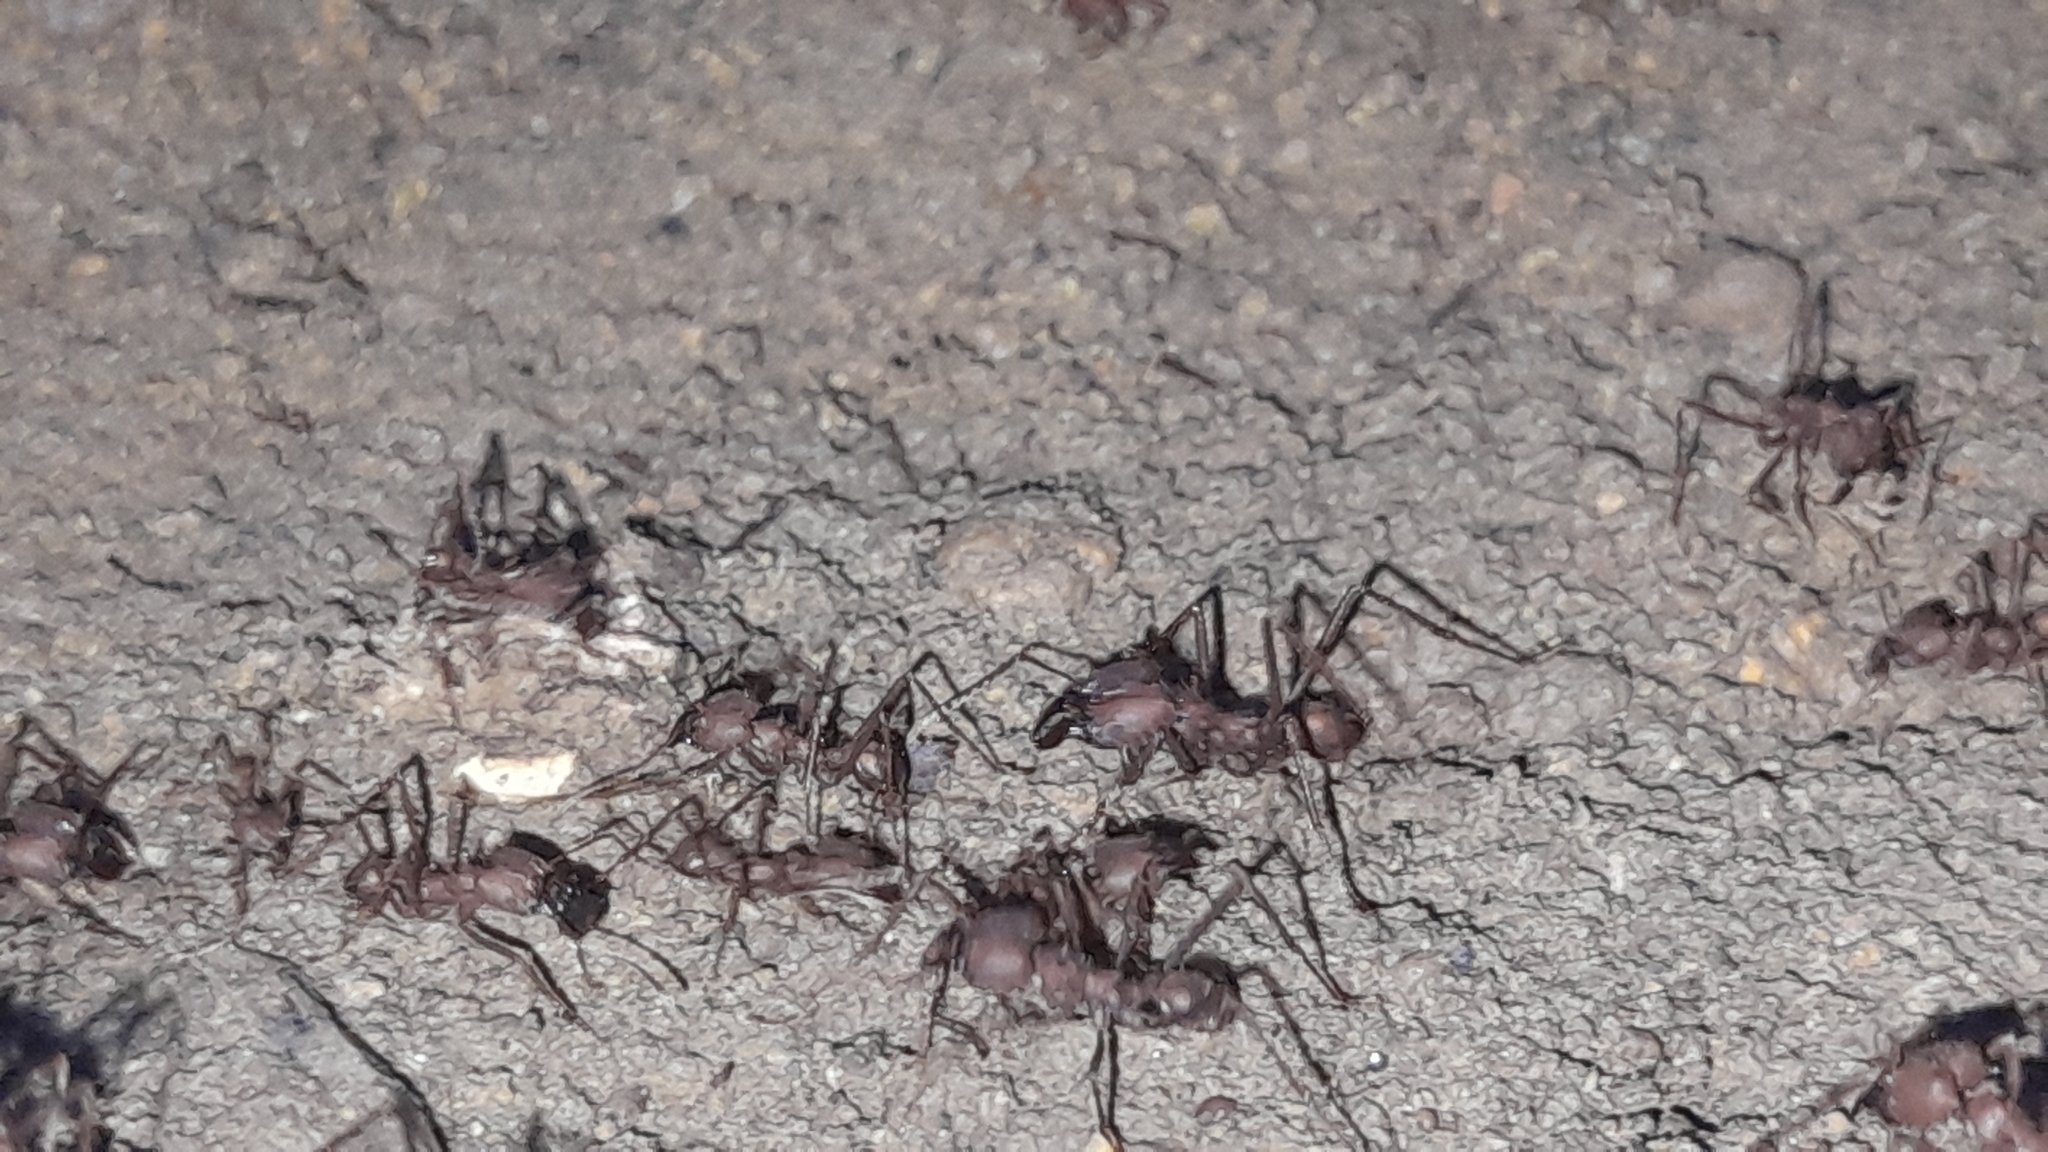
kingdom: Animalia
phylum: Arthropoda
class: Insecta
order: Hymenoptera
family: Formicidae
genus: Atta
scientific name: Atta sexdens
